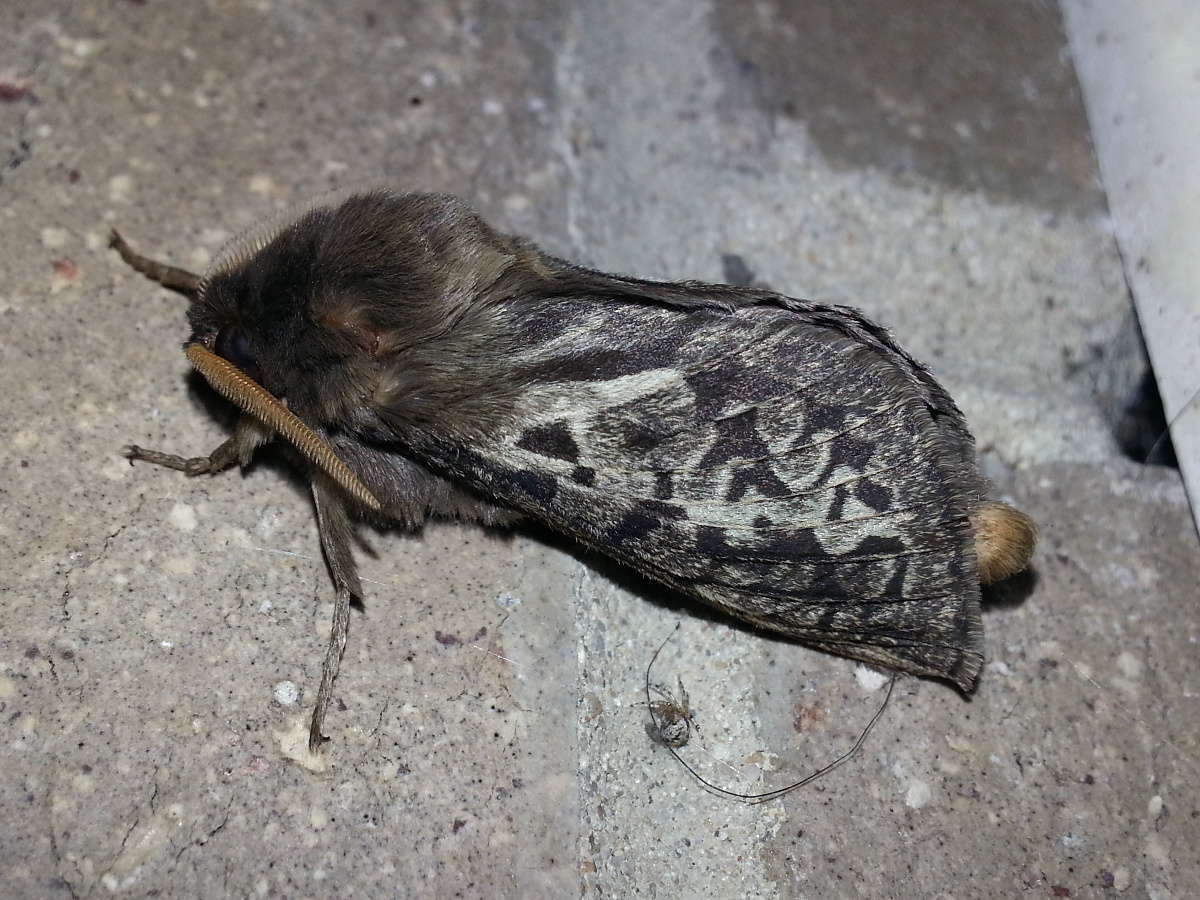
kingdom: Animalia
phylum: Arthropoda
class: Insecta
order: Lepidoptera
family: Hepialidae
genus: Oxycanus
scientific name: Oxycanus antipoda
